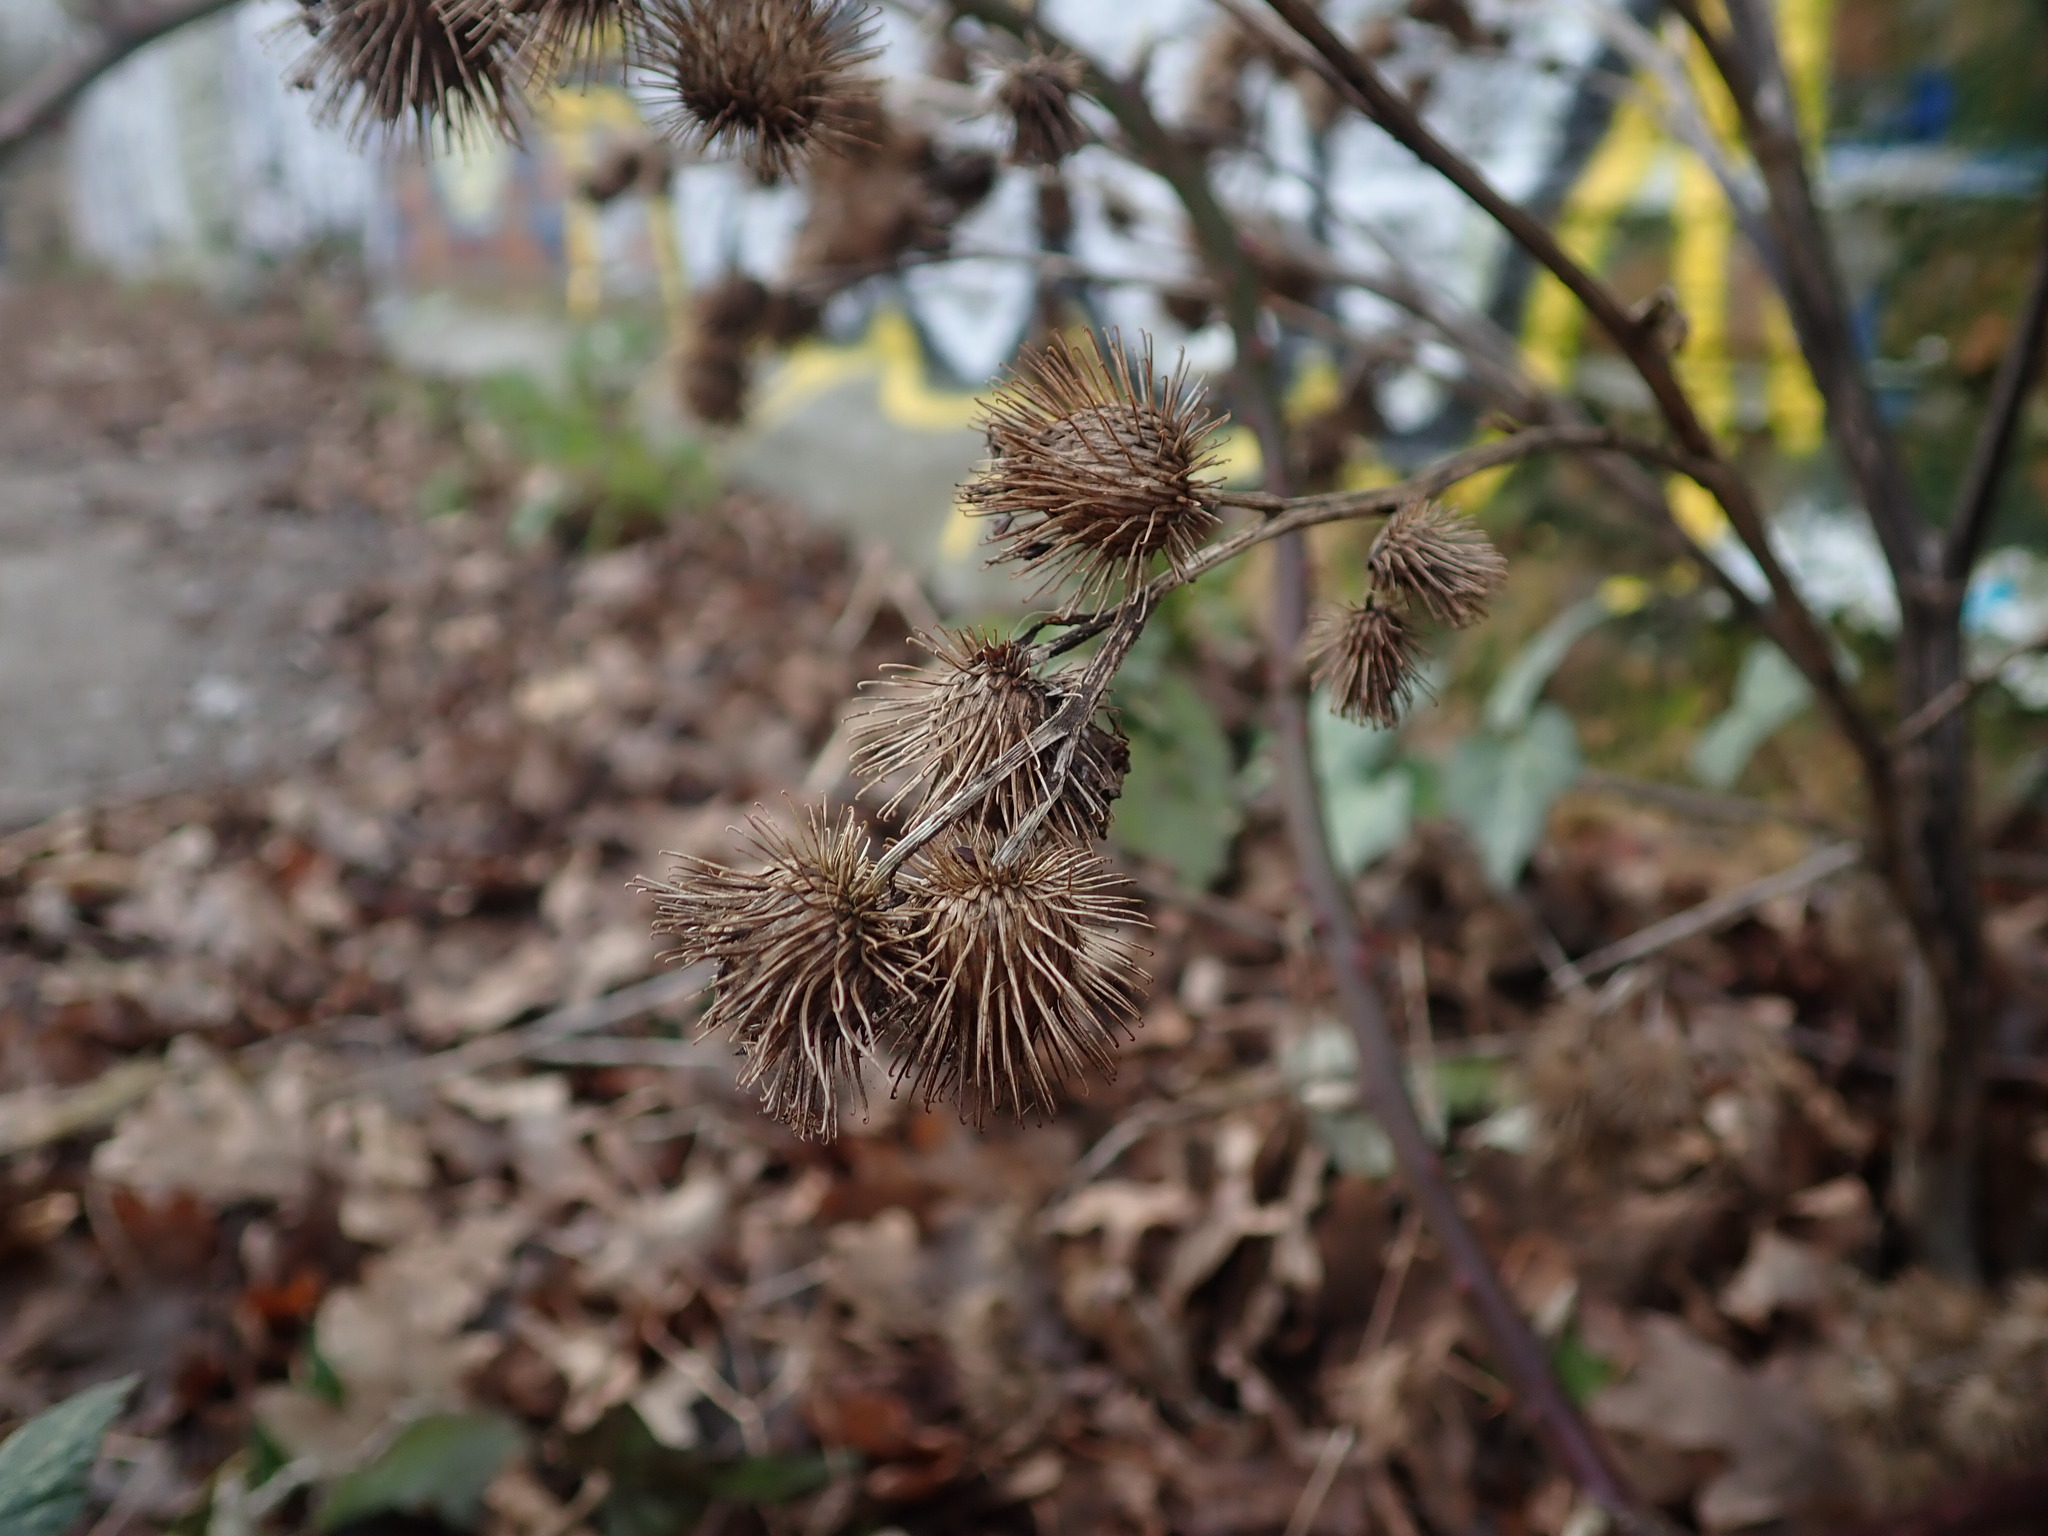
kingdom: Plantae
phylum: Tracheophyta
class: Magnoliopsida
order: Asterales
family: Asteraceae
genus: Arctium
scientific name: Arctium minus
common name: Lesser burdock
